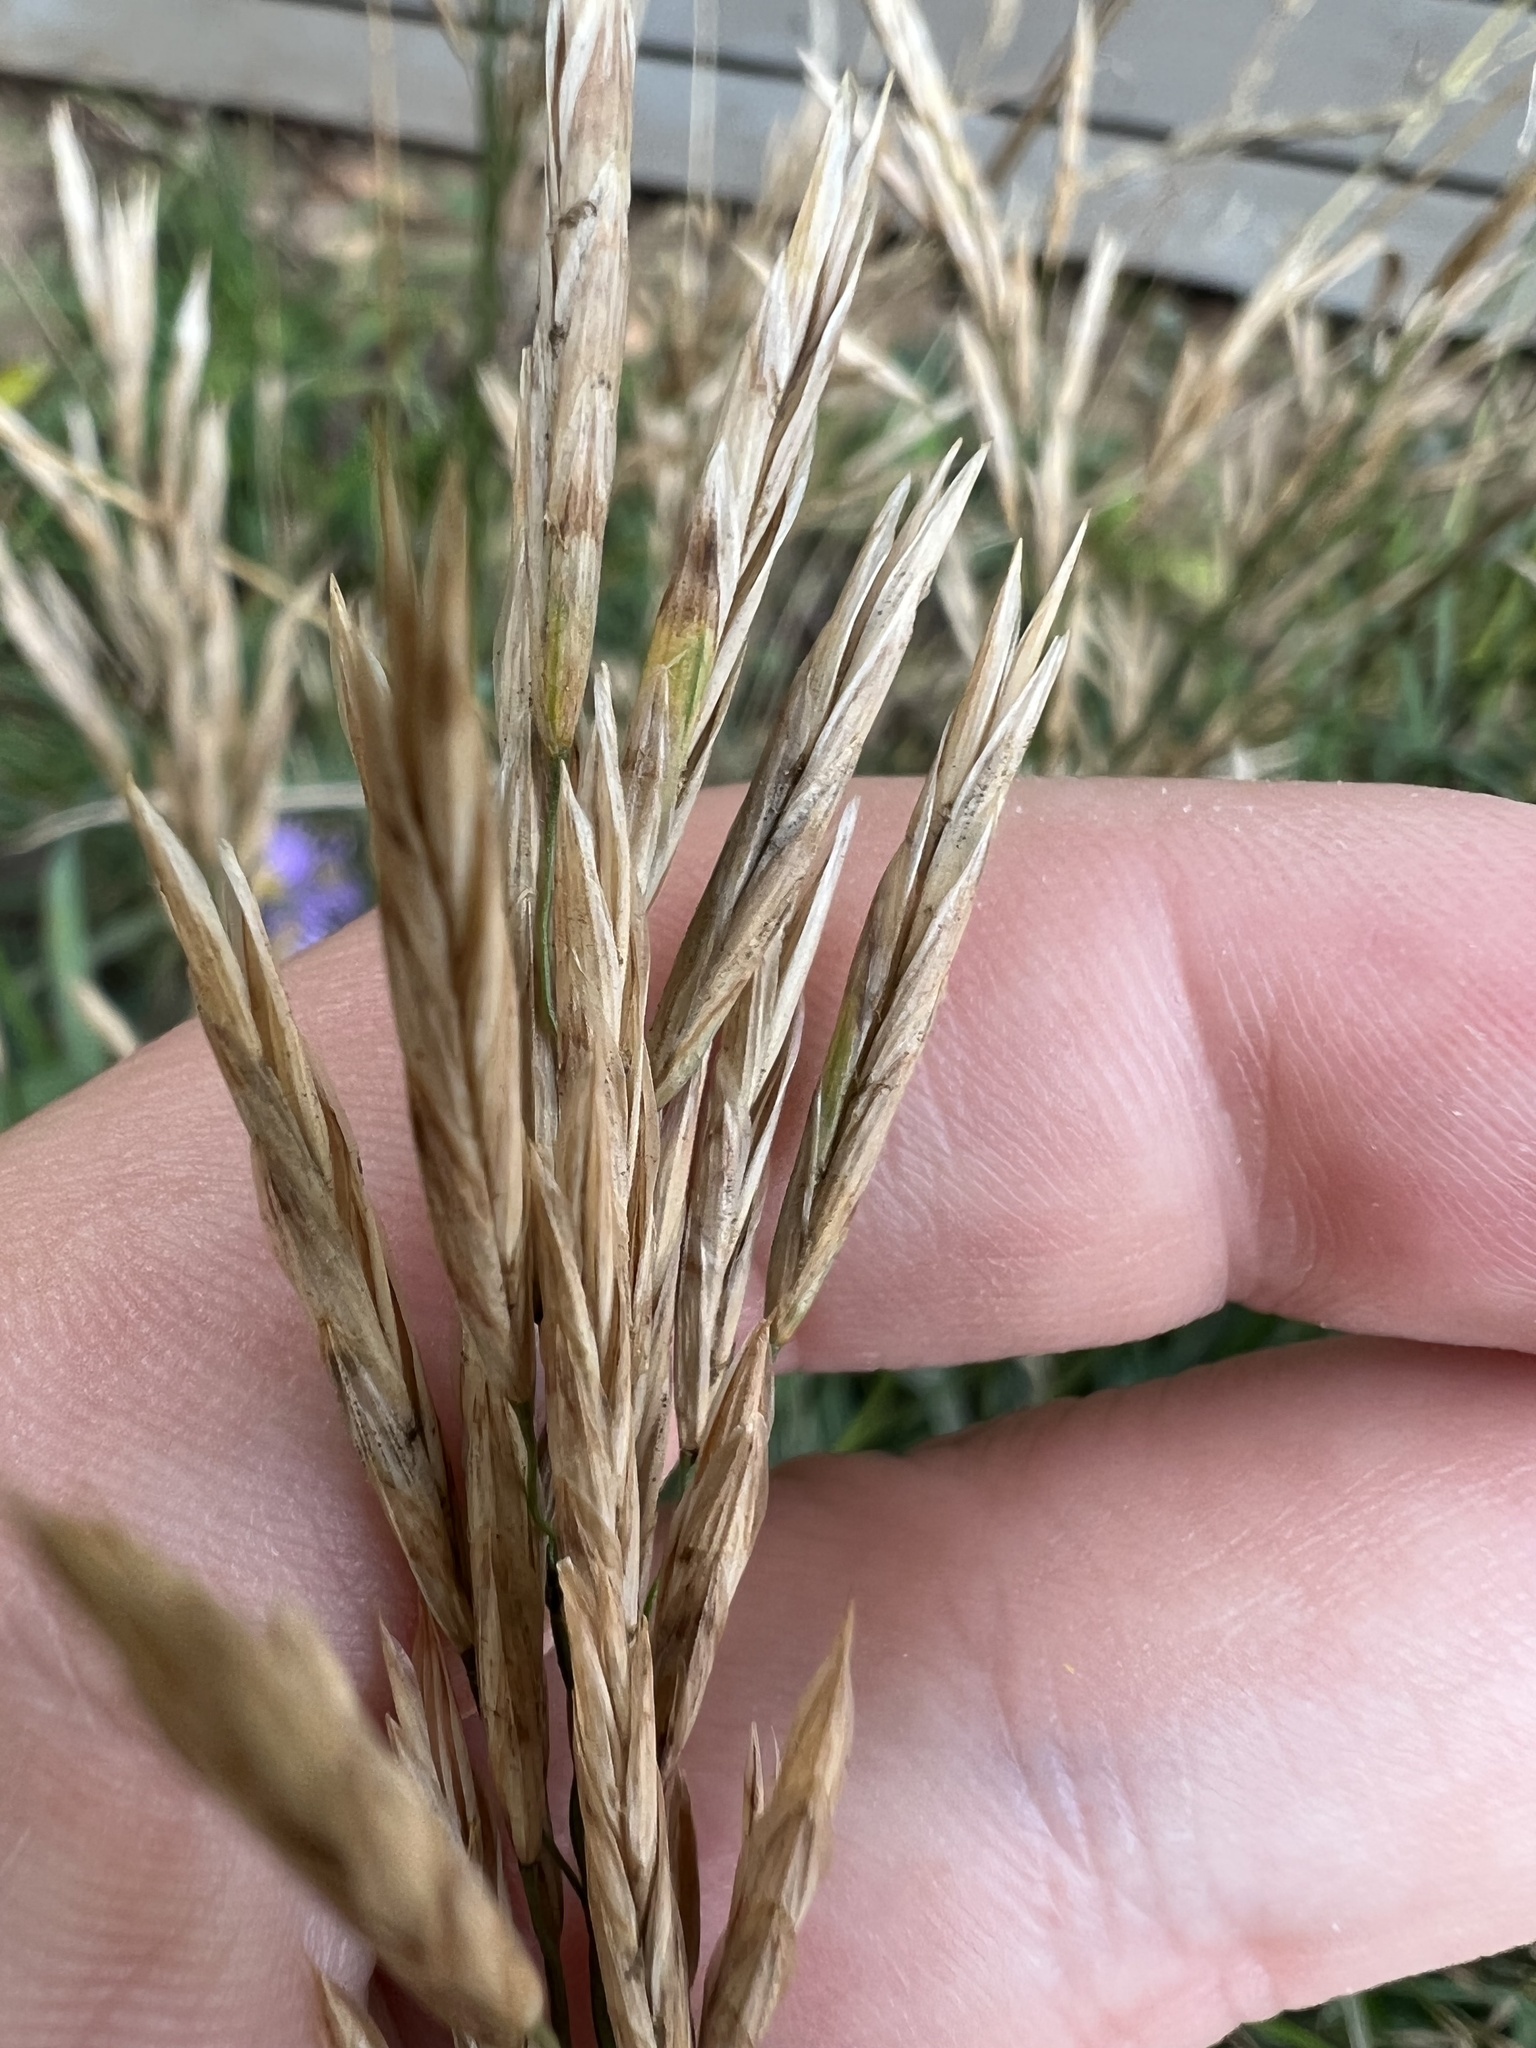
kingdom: Plantae
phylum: Tracheophyta
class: Liliopsida
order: Poales
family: Poaceae
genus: Bromus
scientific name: Bromus inermis
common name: Smooth brome
